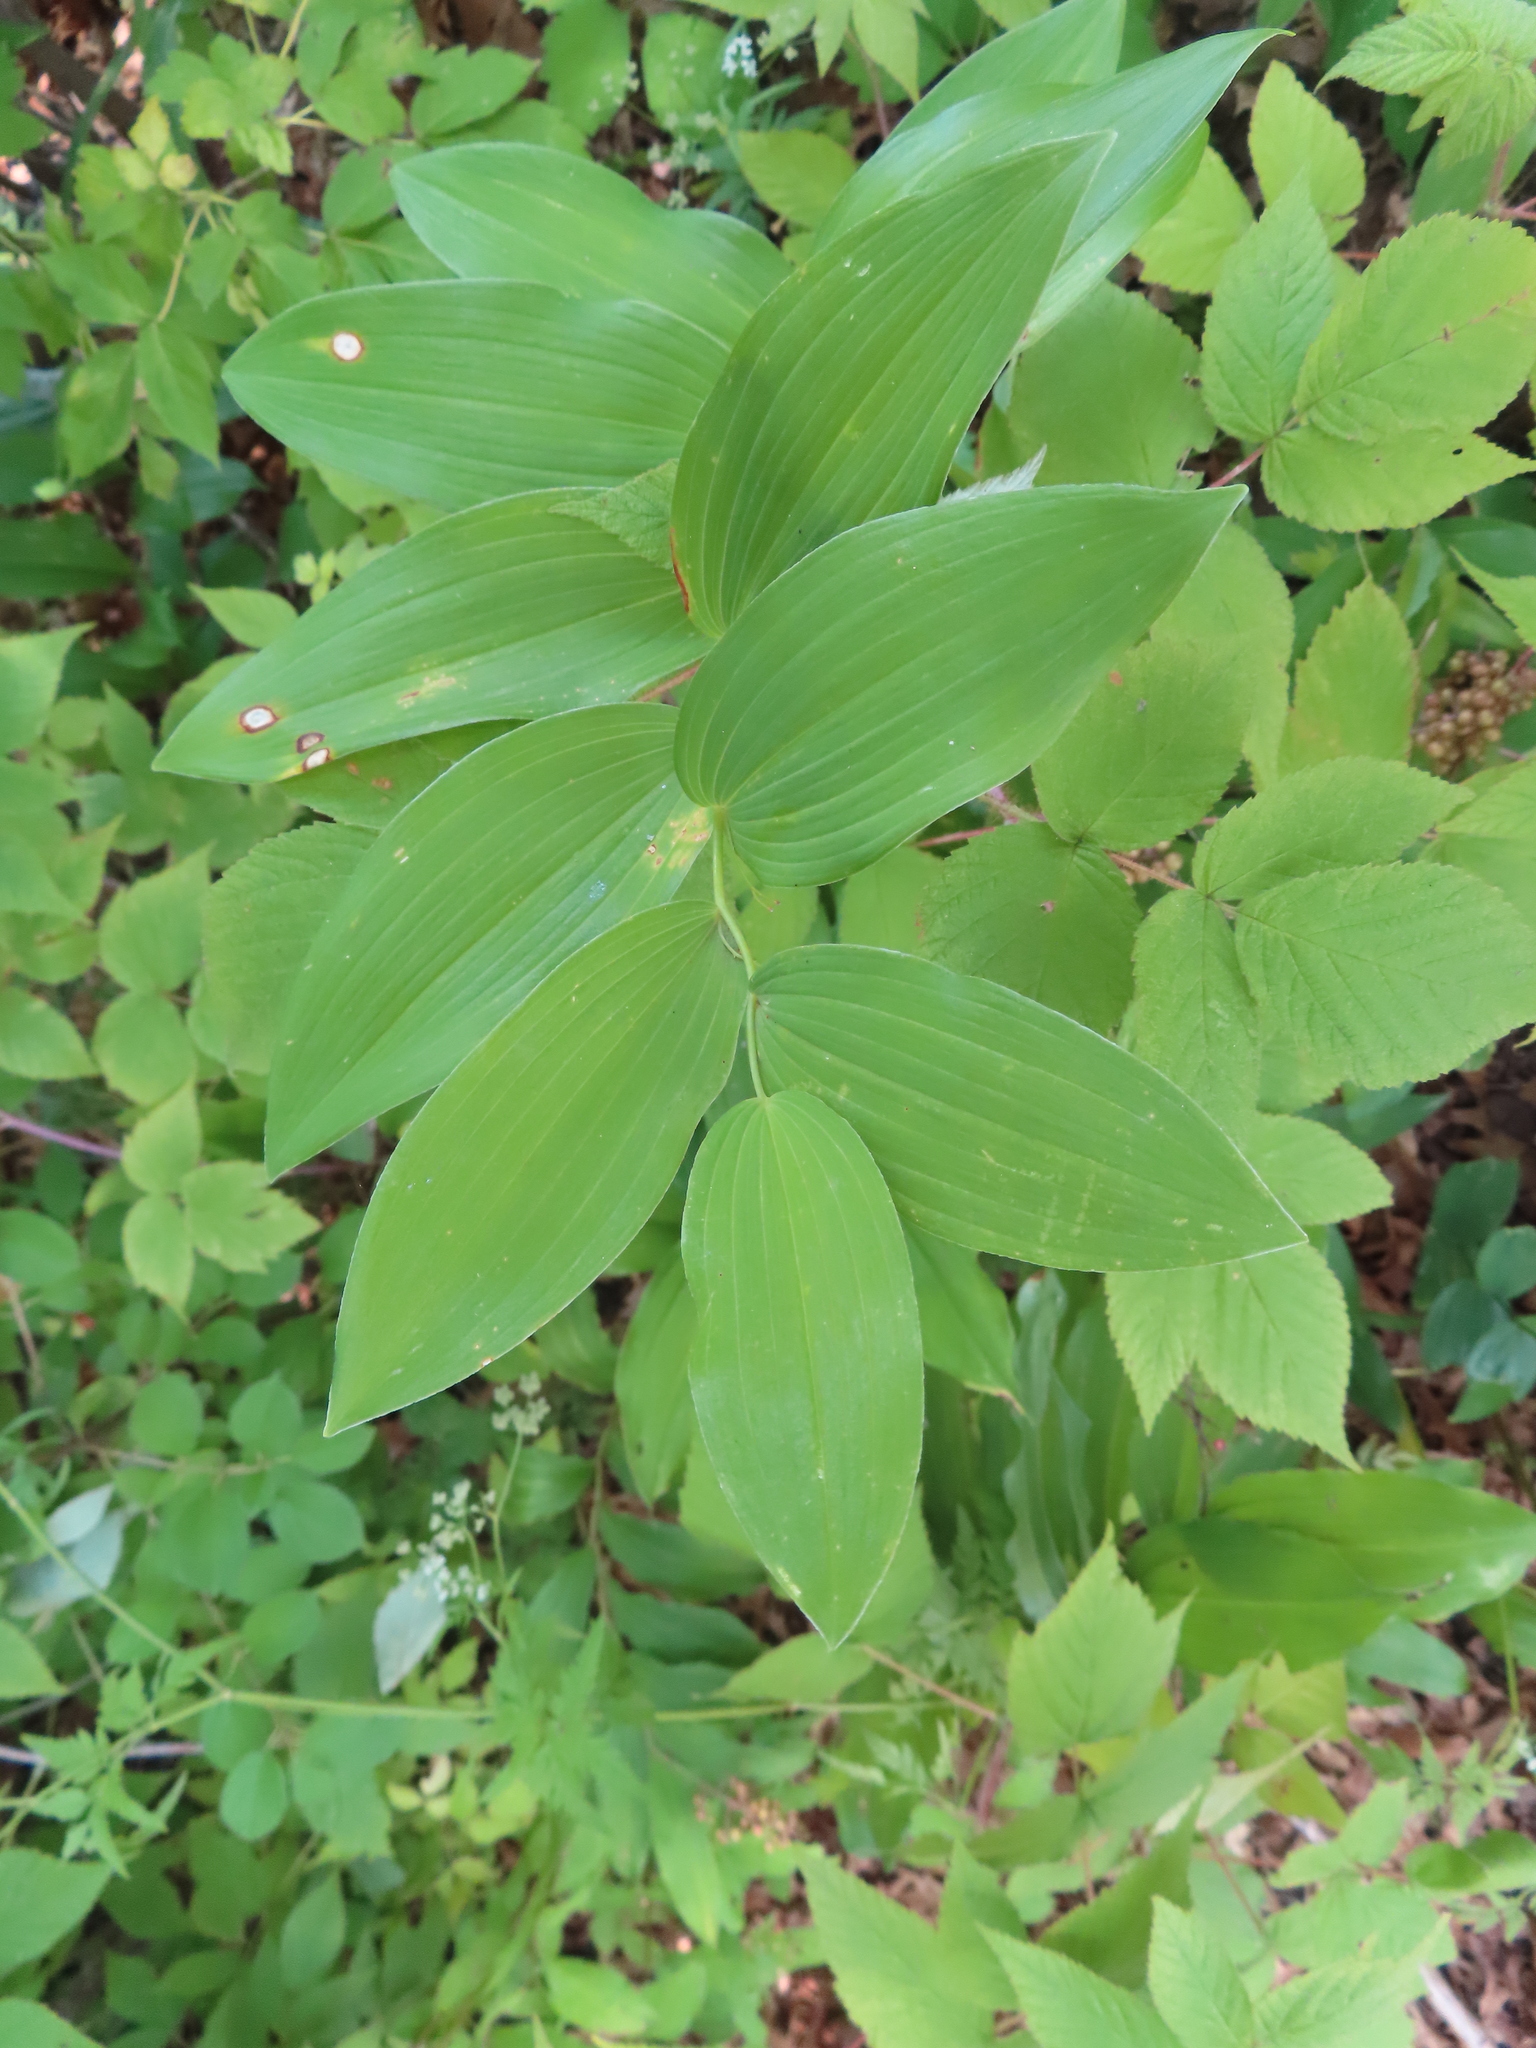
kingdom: Plantae
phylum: Tracheophyta
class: Liliopsida
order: Asparagales
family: Asparagaceae
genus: Polygonatum
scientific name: Polygonatum biflorum
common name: American solomon's-seal
